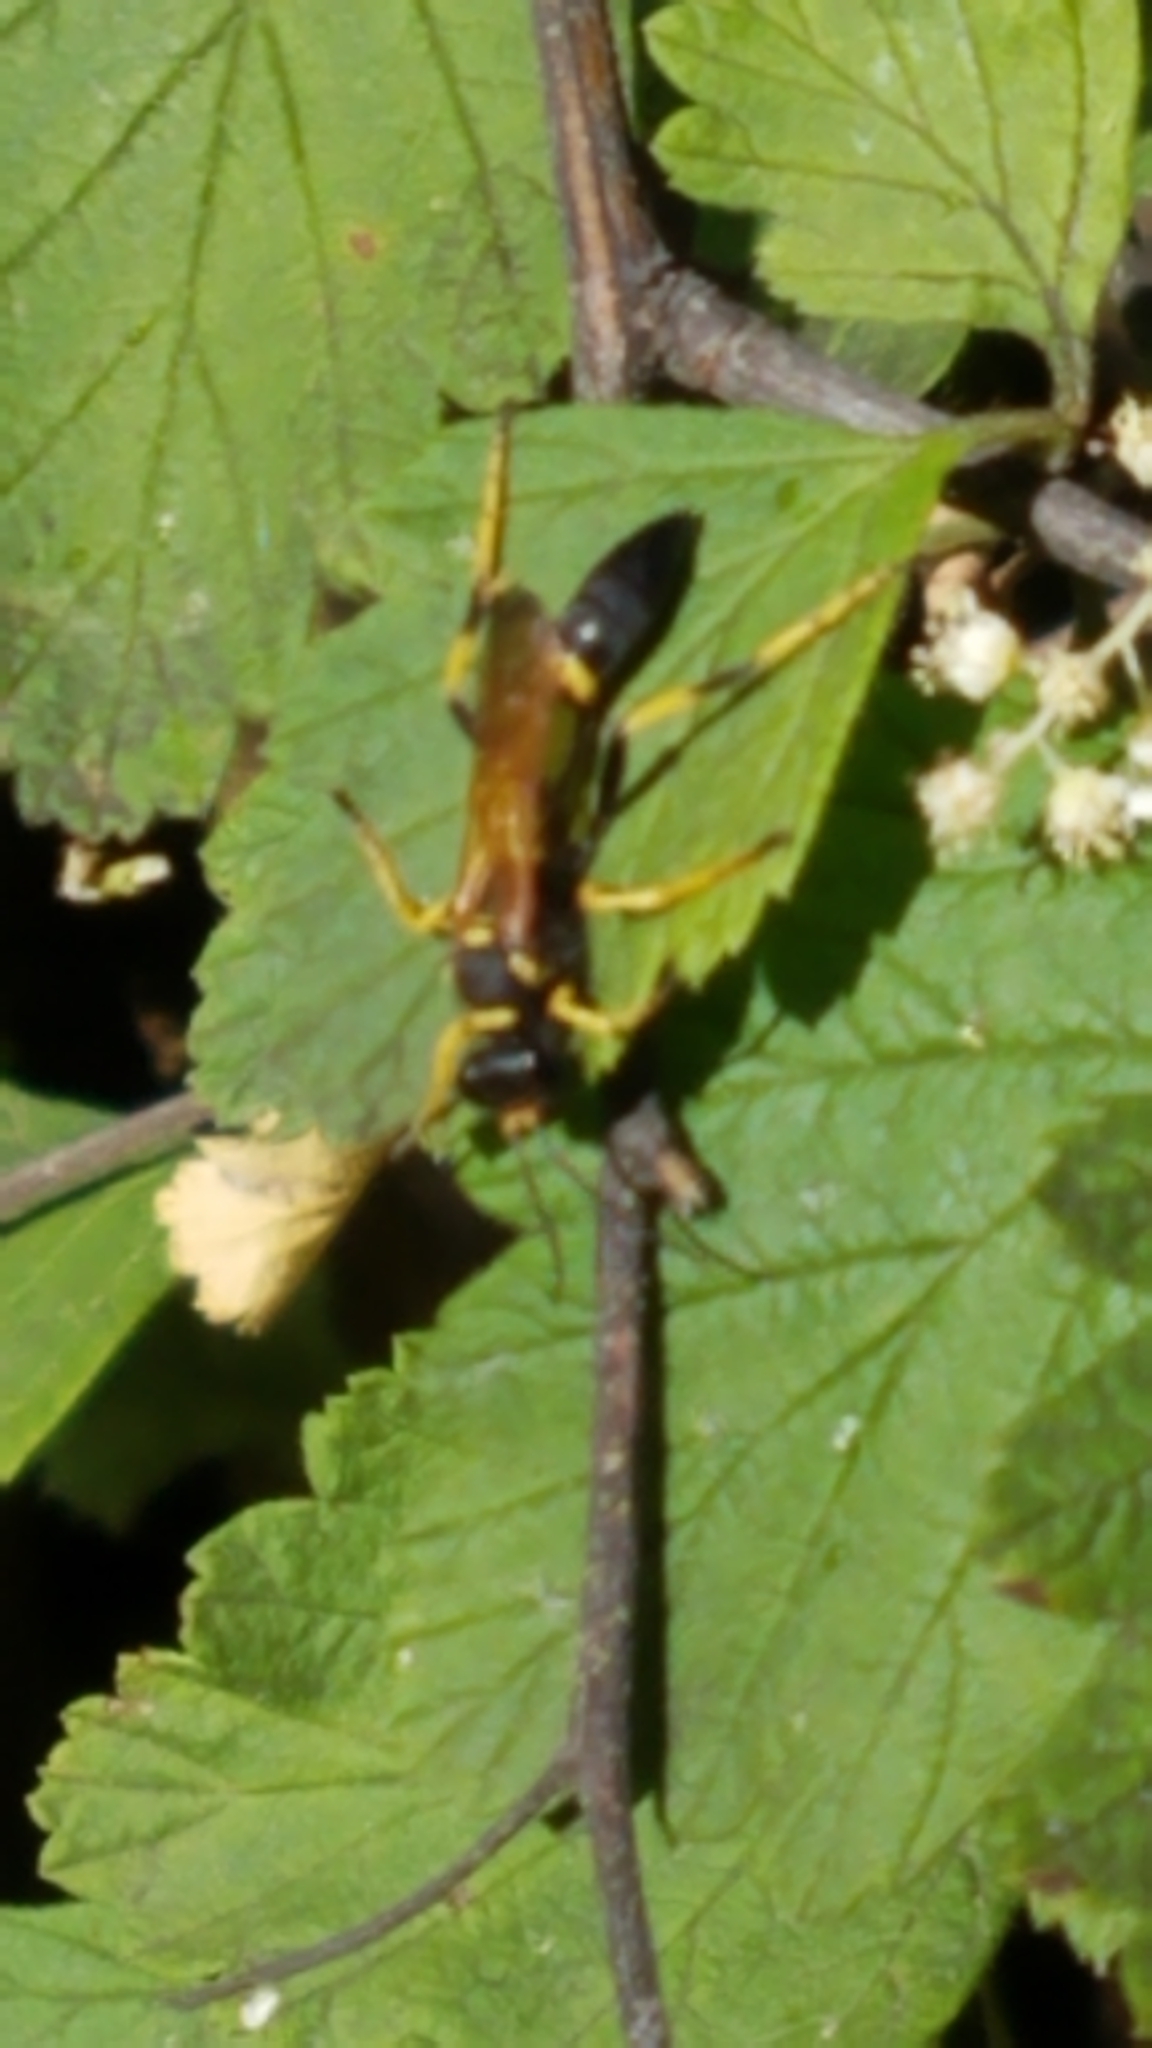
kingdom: Animalia
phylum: Arthropoda
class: Insecta
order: Hymenoptera
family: Sphecidae
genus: Sceliphron
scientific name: Sceliphron caementarium
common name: Mud dauber
